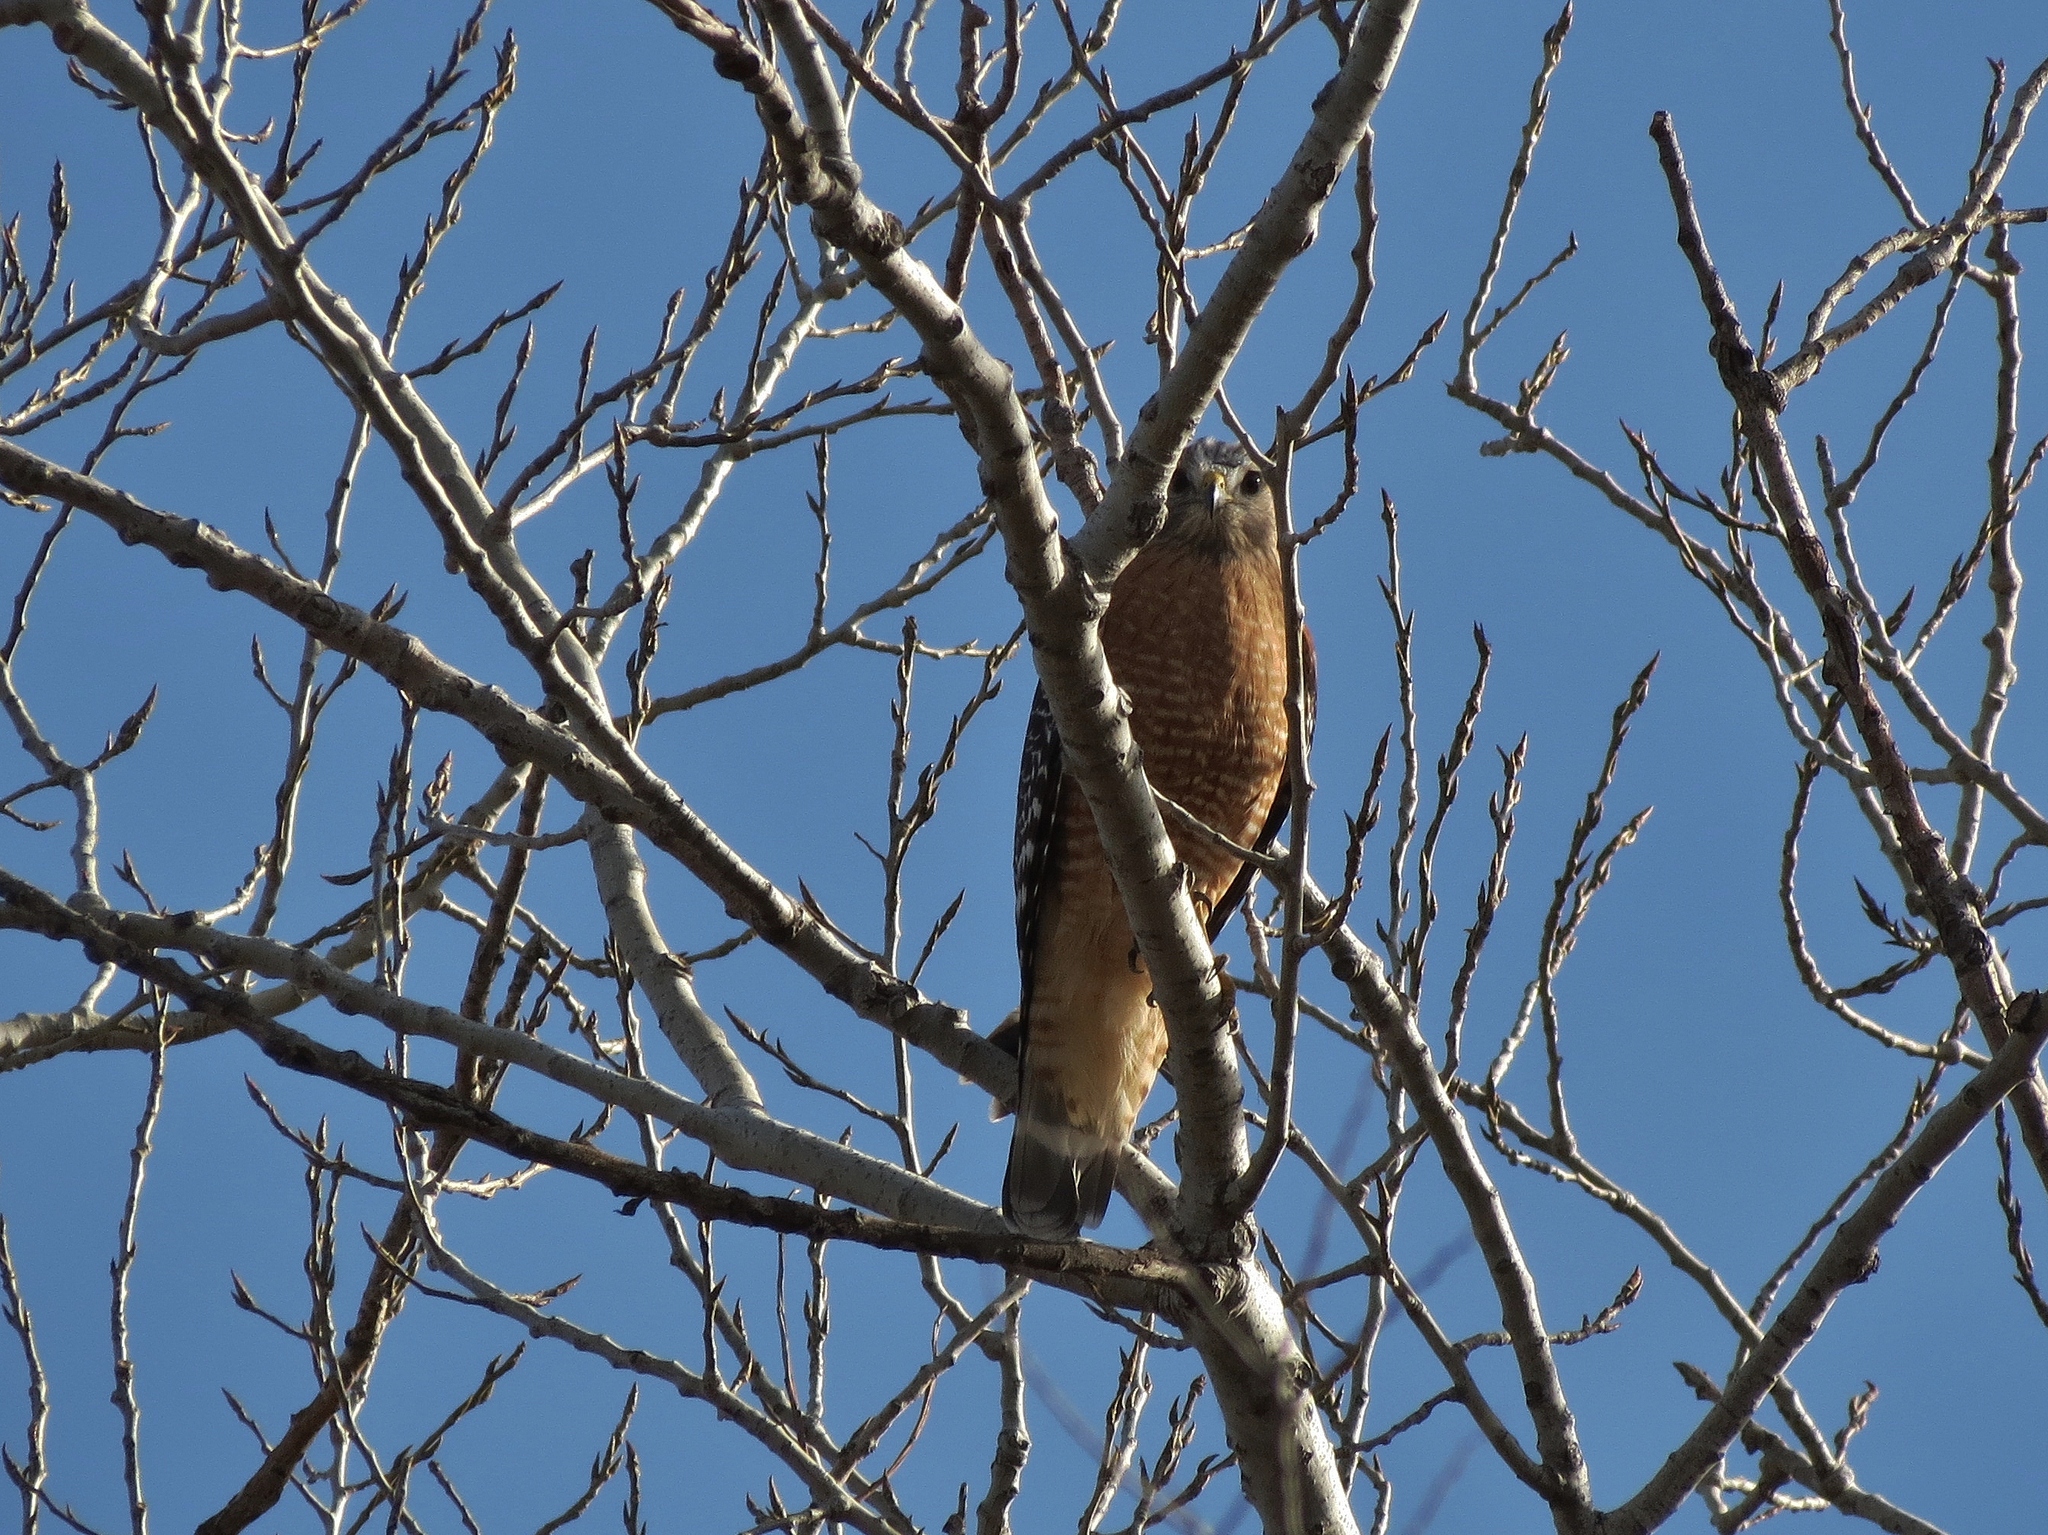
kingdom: Animalia
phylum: Chordata
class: Aves
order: Accipitriformes
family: Accipitridae
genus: Buteo
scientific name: Buteo lineatus
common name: Red-shouldered hawk
